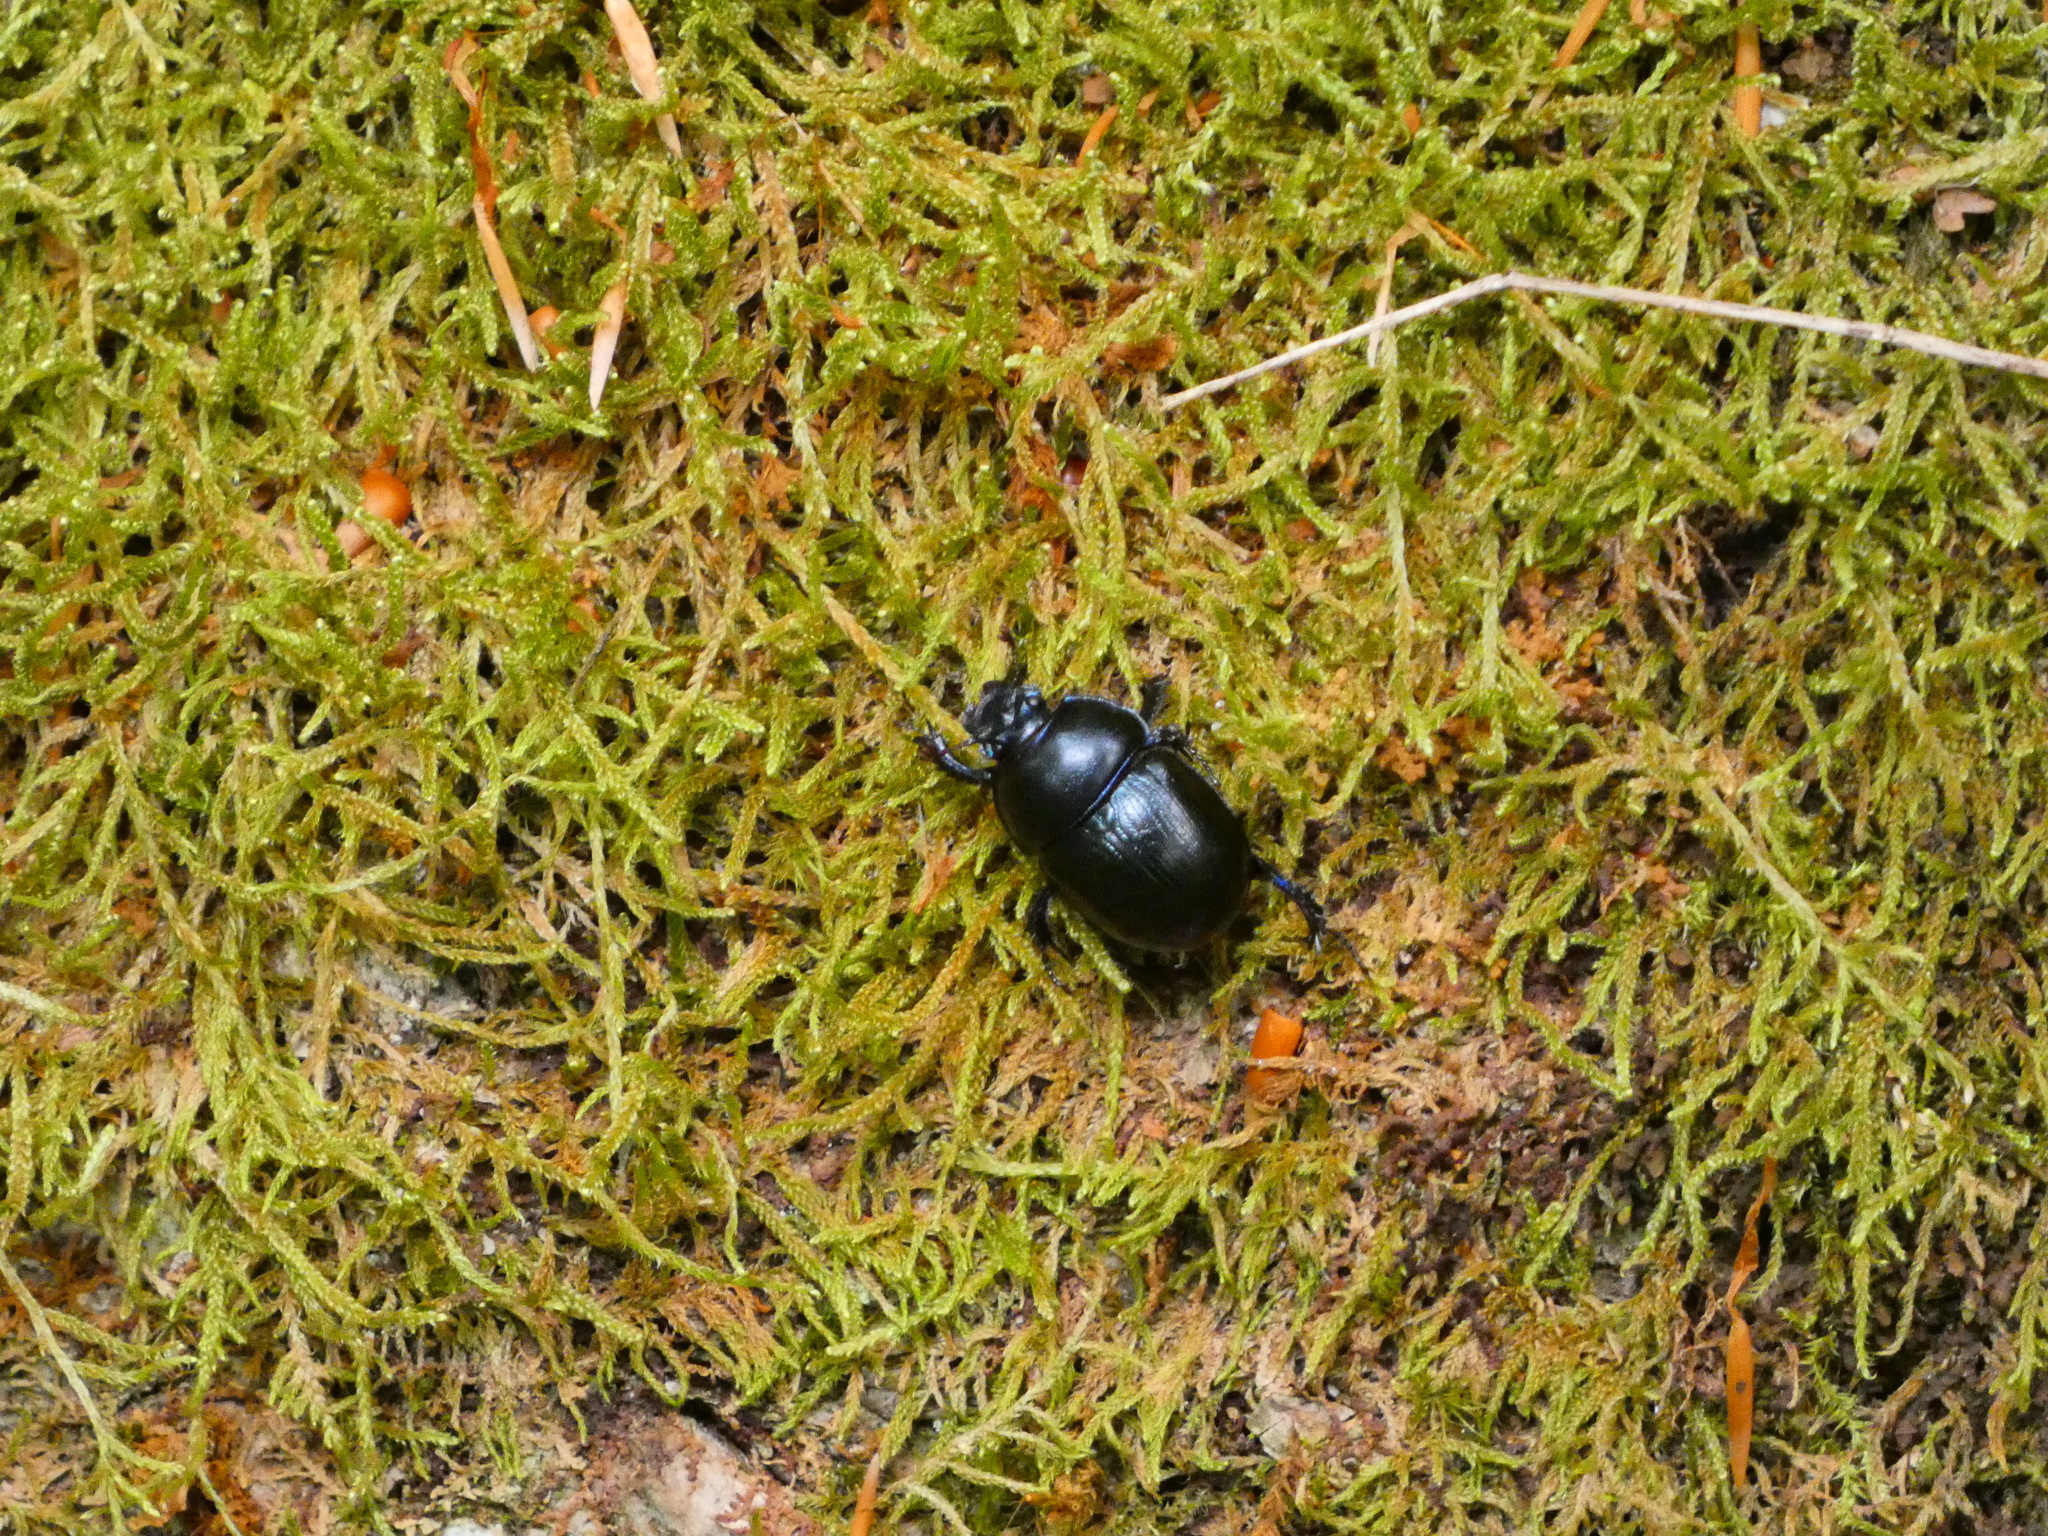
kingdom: Animalia
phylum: Arthropoda
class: Insecta
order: Coleoptera
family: Geotrupidae
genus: Anoplotrupes
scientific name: Anoplotrupes stercorosus
